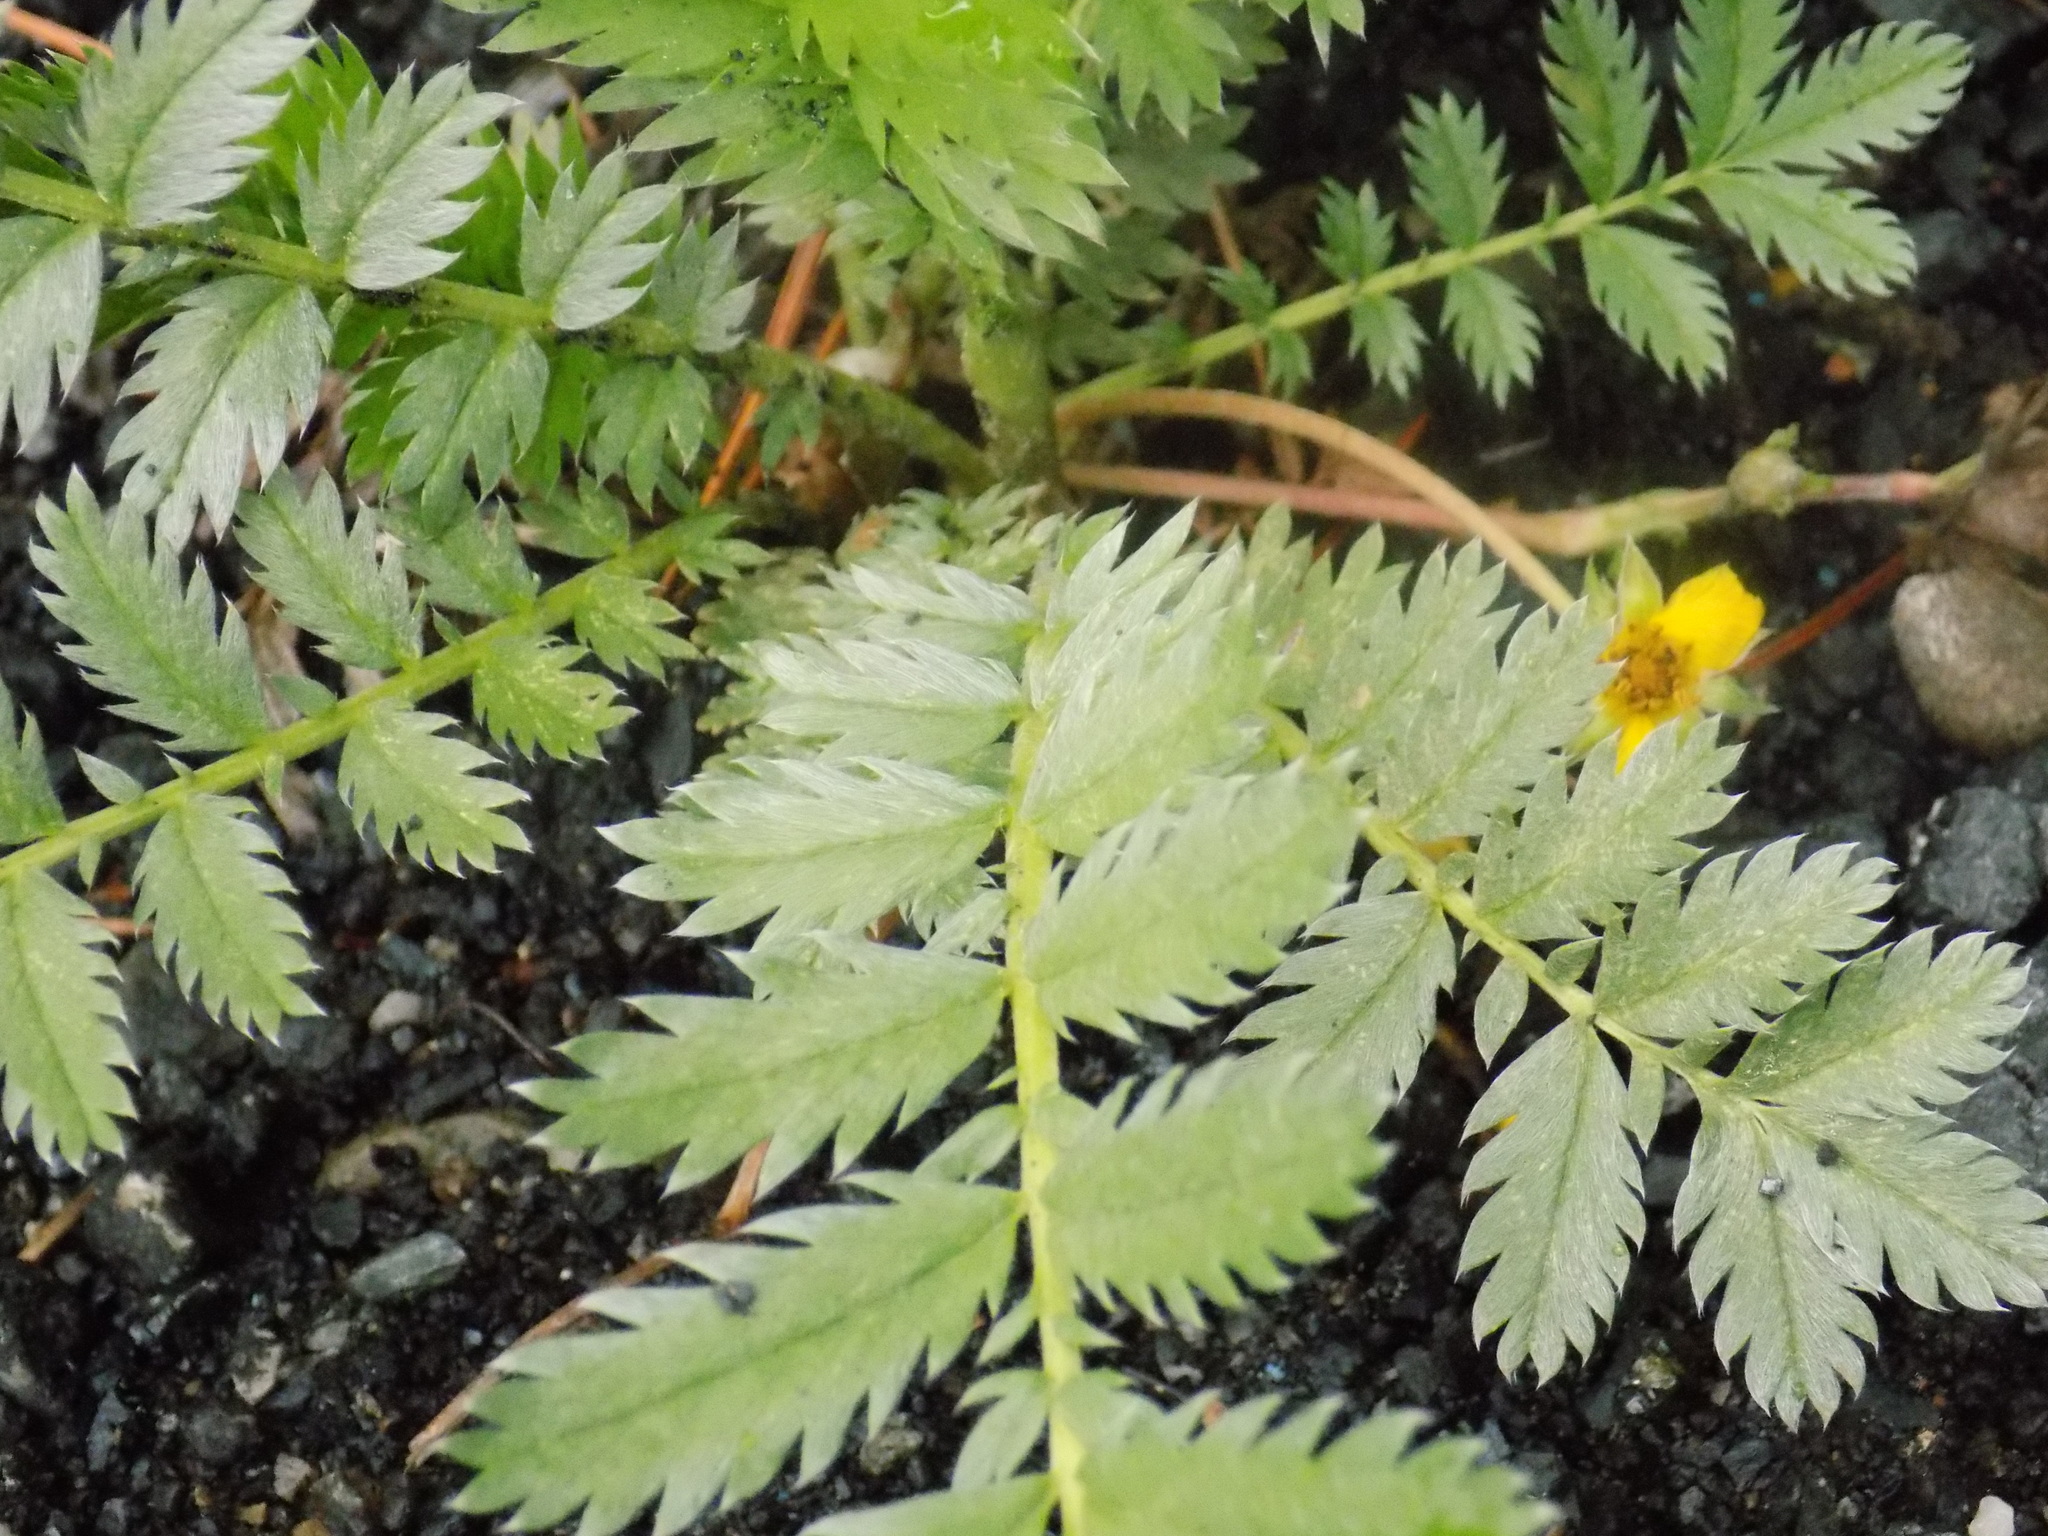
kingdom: Plantae
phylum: Tracheophyta
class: Magnoliopsida
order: Rosales
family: Rosaceae
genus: Argentina
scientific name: Argentina anserina
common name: Common silverweed
